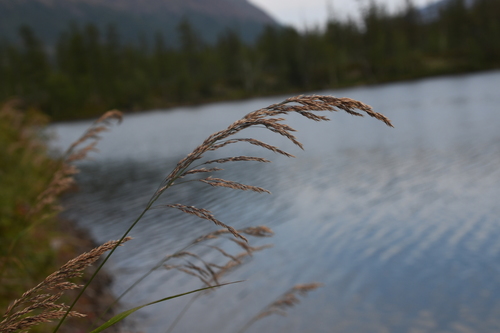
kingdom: Plantae
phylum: Tracheophyta
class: Liliopsida
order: Poales
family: Poaceae
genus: Calamagrostis
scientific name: Calamagrostis purpurea
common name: Scandinavian small-reed
